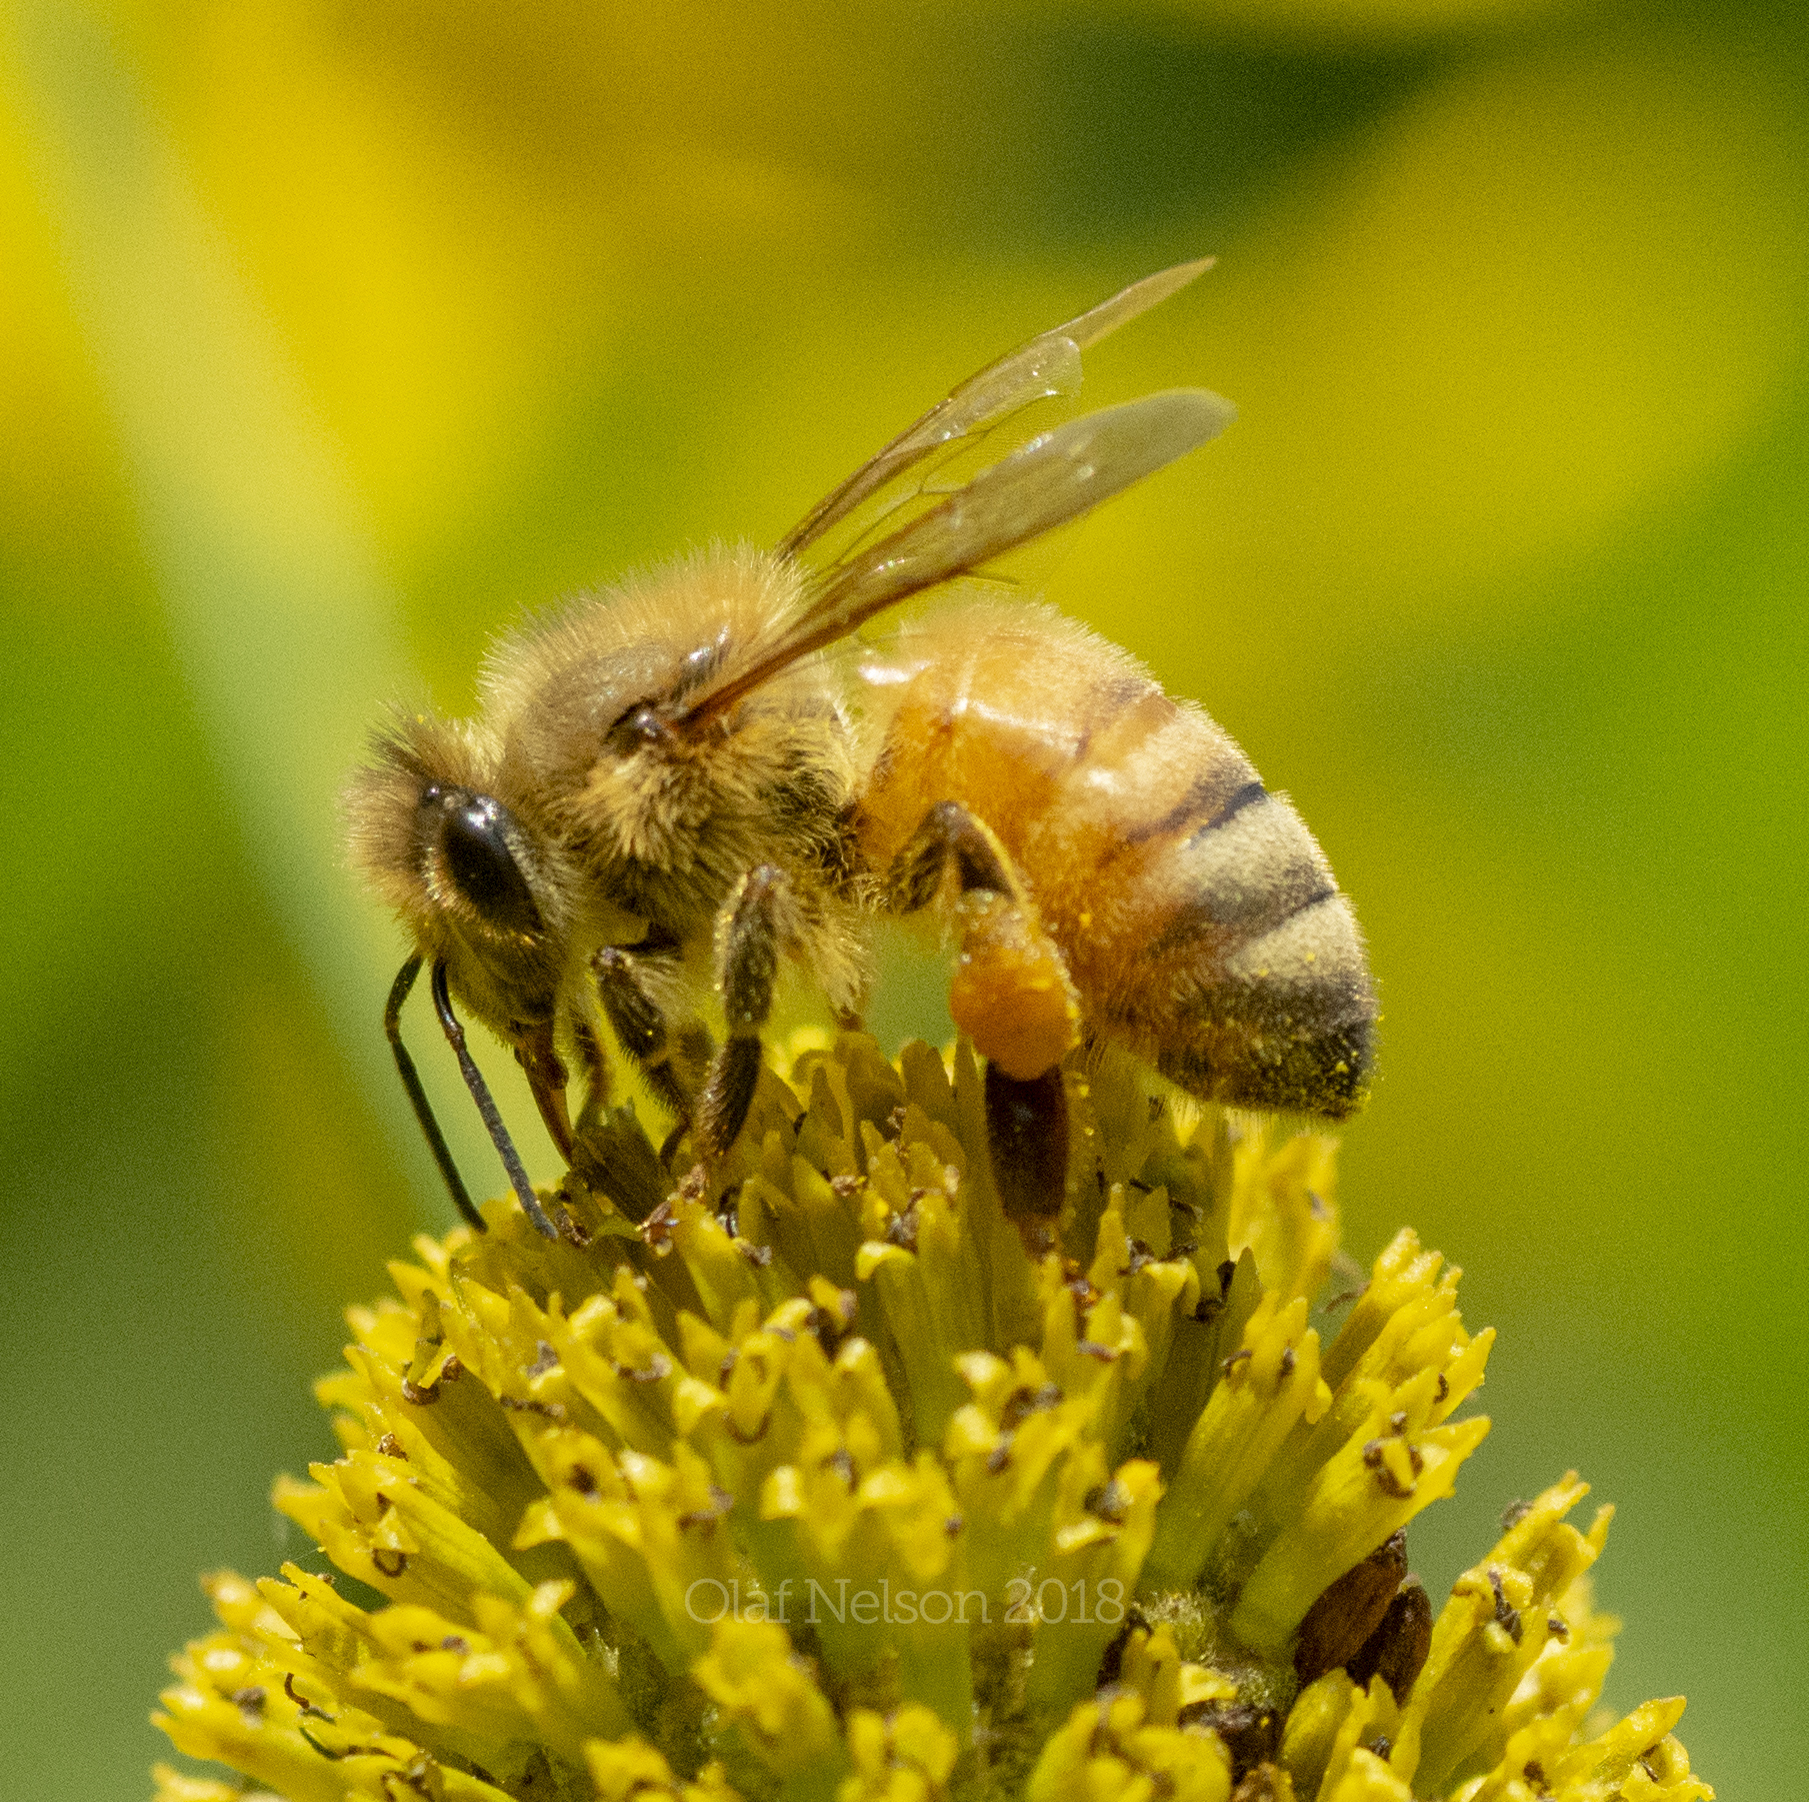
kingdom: Animalia
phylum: Arthropoda
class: Insecta
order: Hymenoptera
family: Apidae
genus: Apis
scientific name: Apis mellifera
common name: Honey bee
